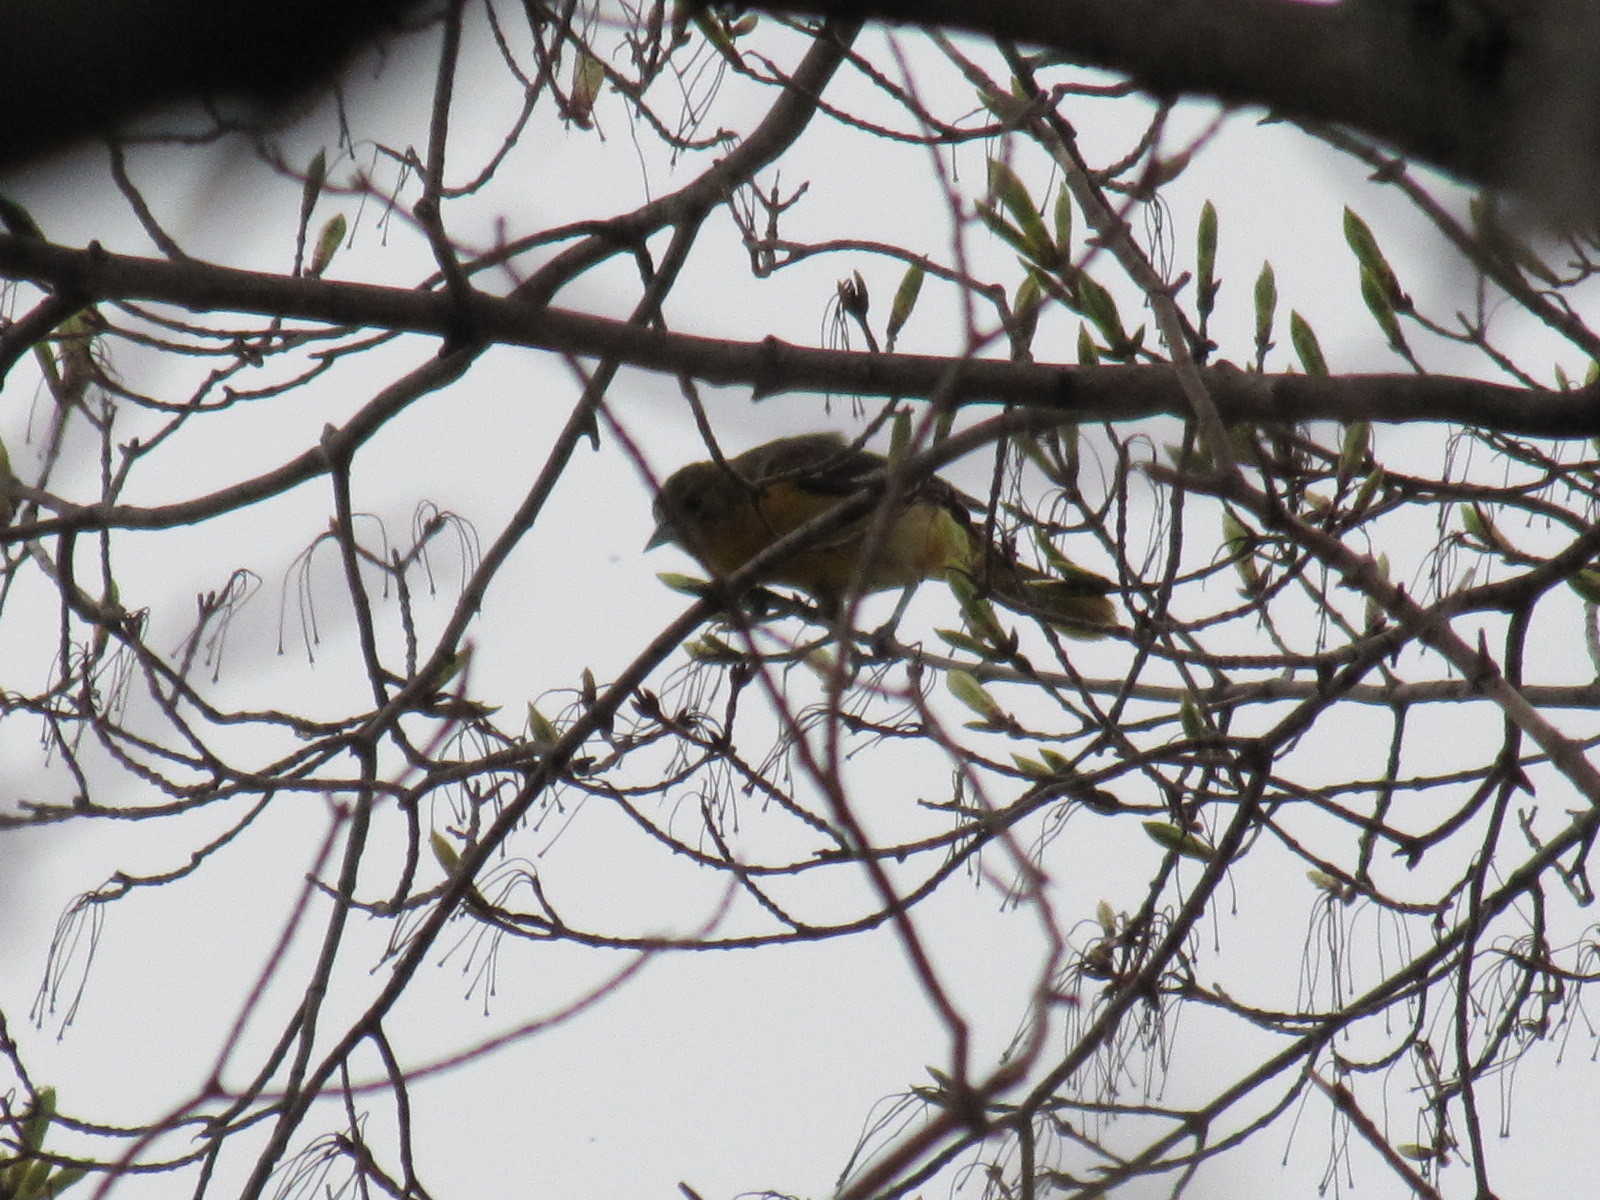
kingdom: Animalia
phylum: Chordata
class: Aves
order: Passeriformes
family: Icteridae
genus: Icterus
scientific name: Icterus galbula
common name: Baltimore oriole
